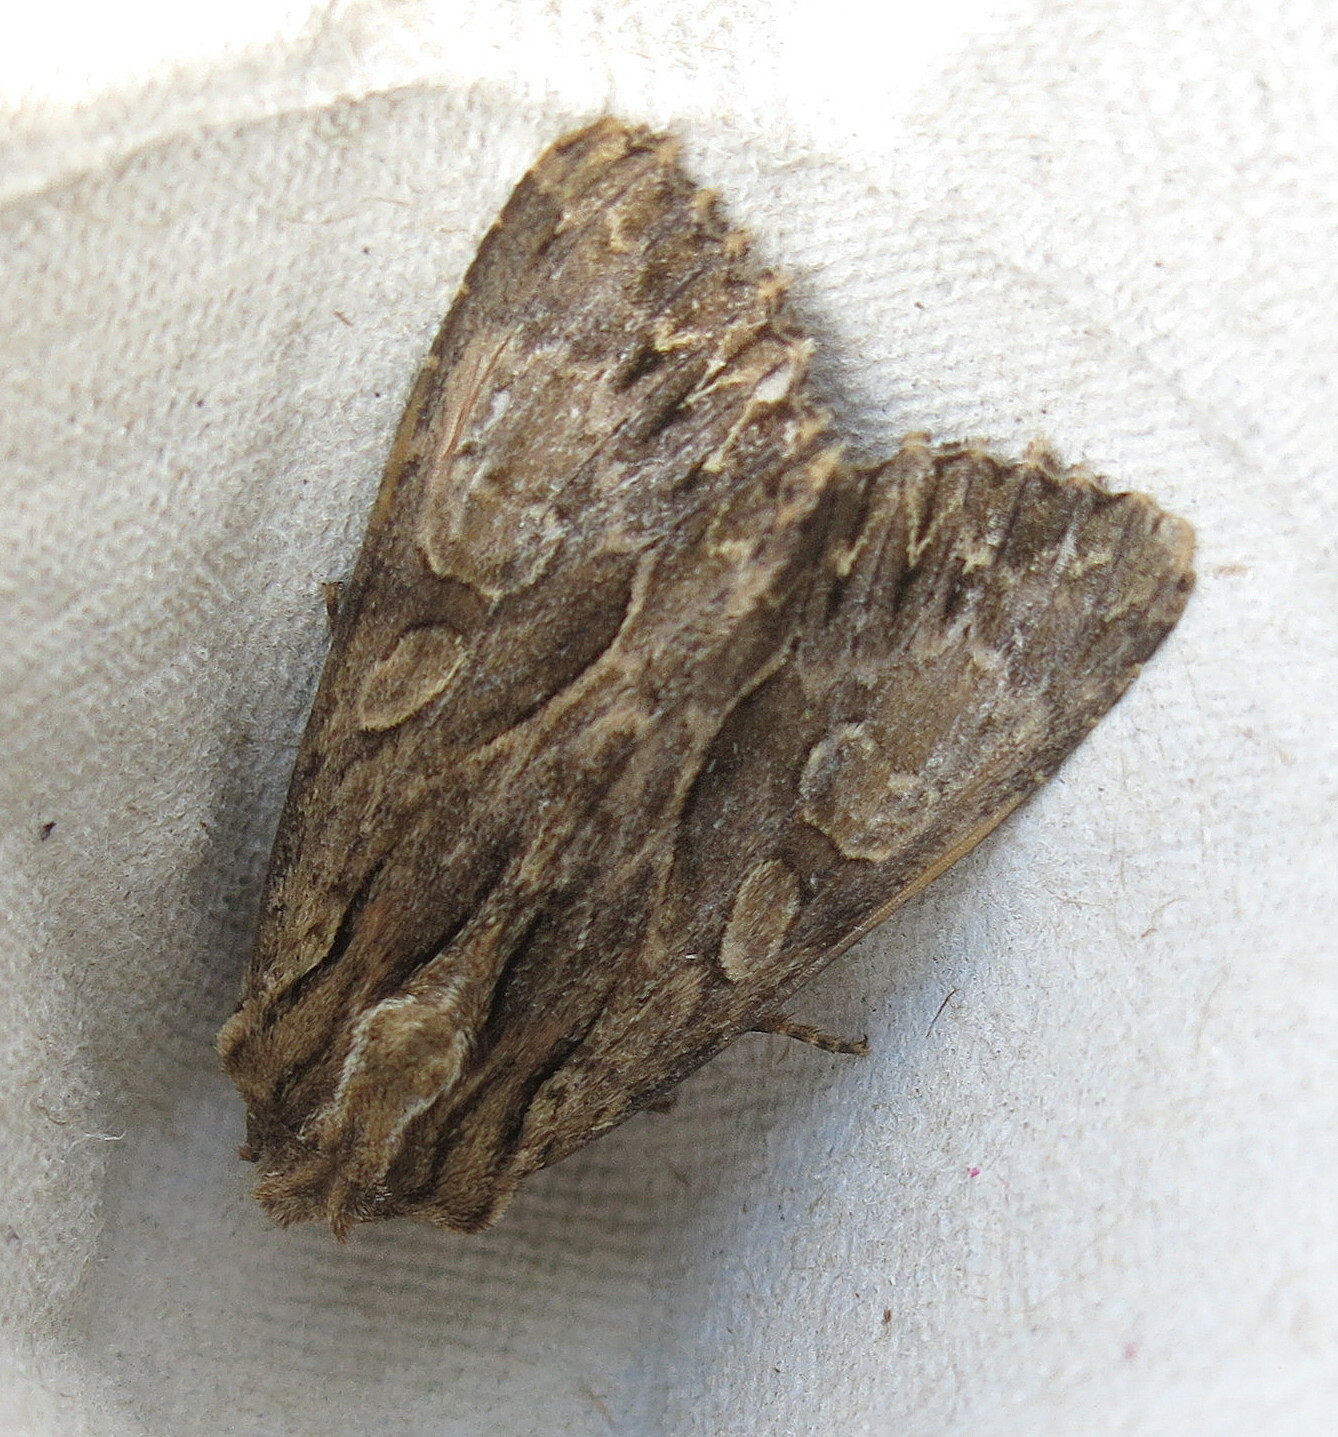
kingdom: Animalia
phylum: Arthropoda
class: Insecta
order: Lepidoptera
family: Noctuidae
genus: Apamea
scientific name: Apamea monoglypha
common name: Dark arches
